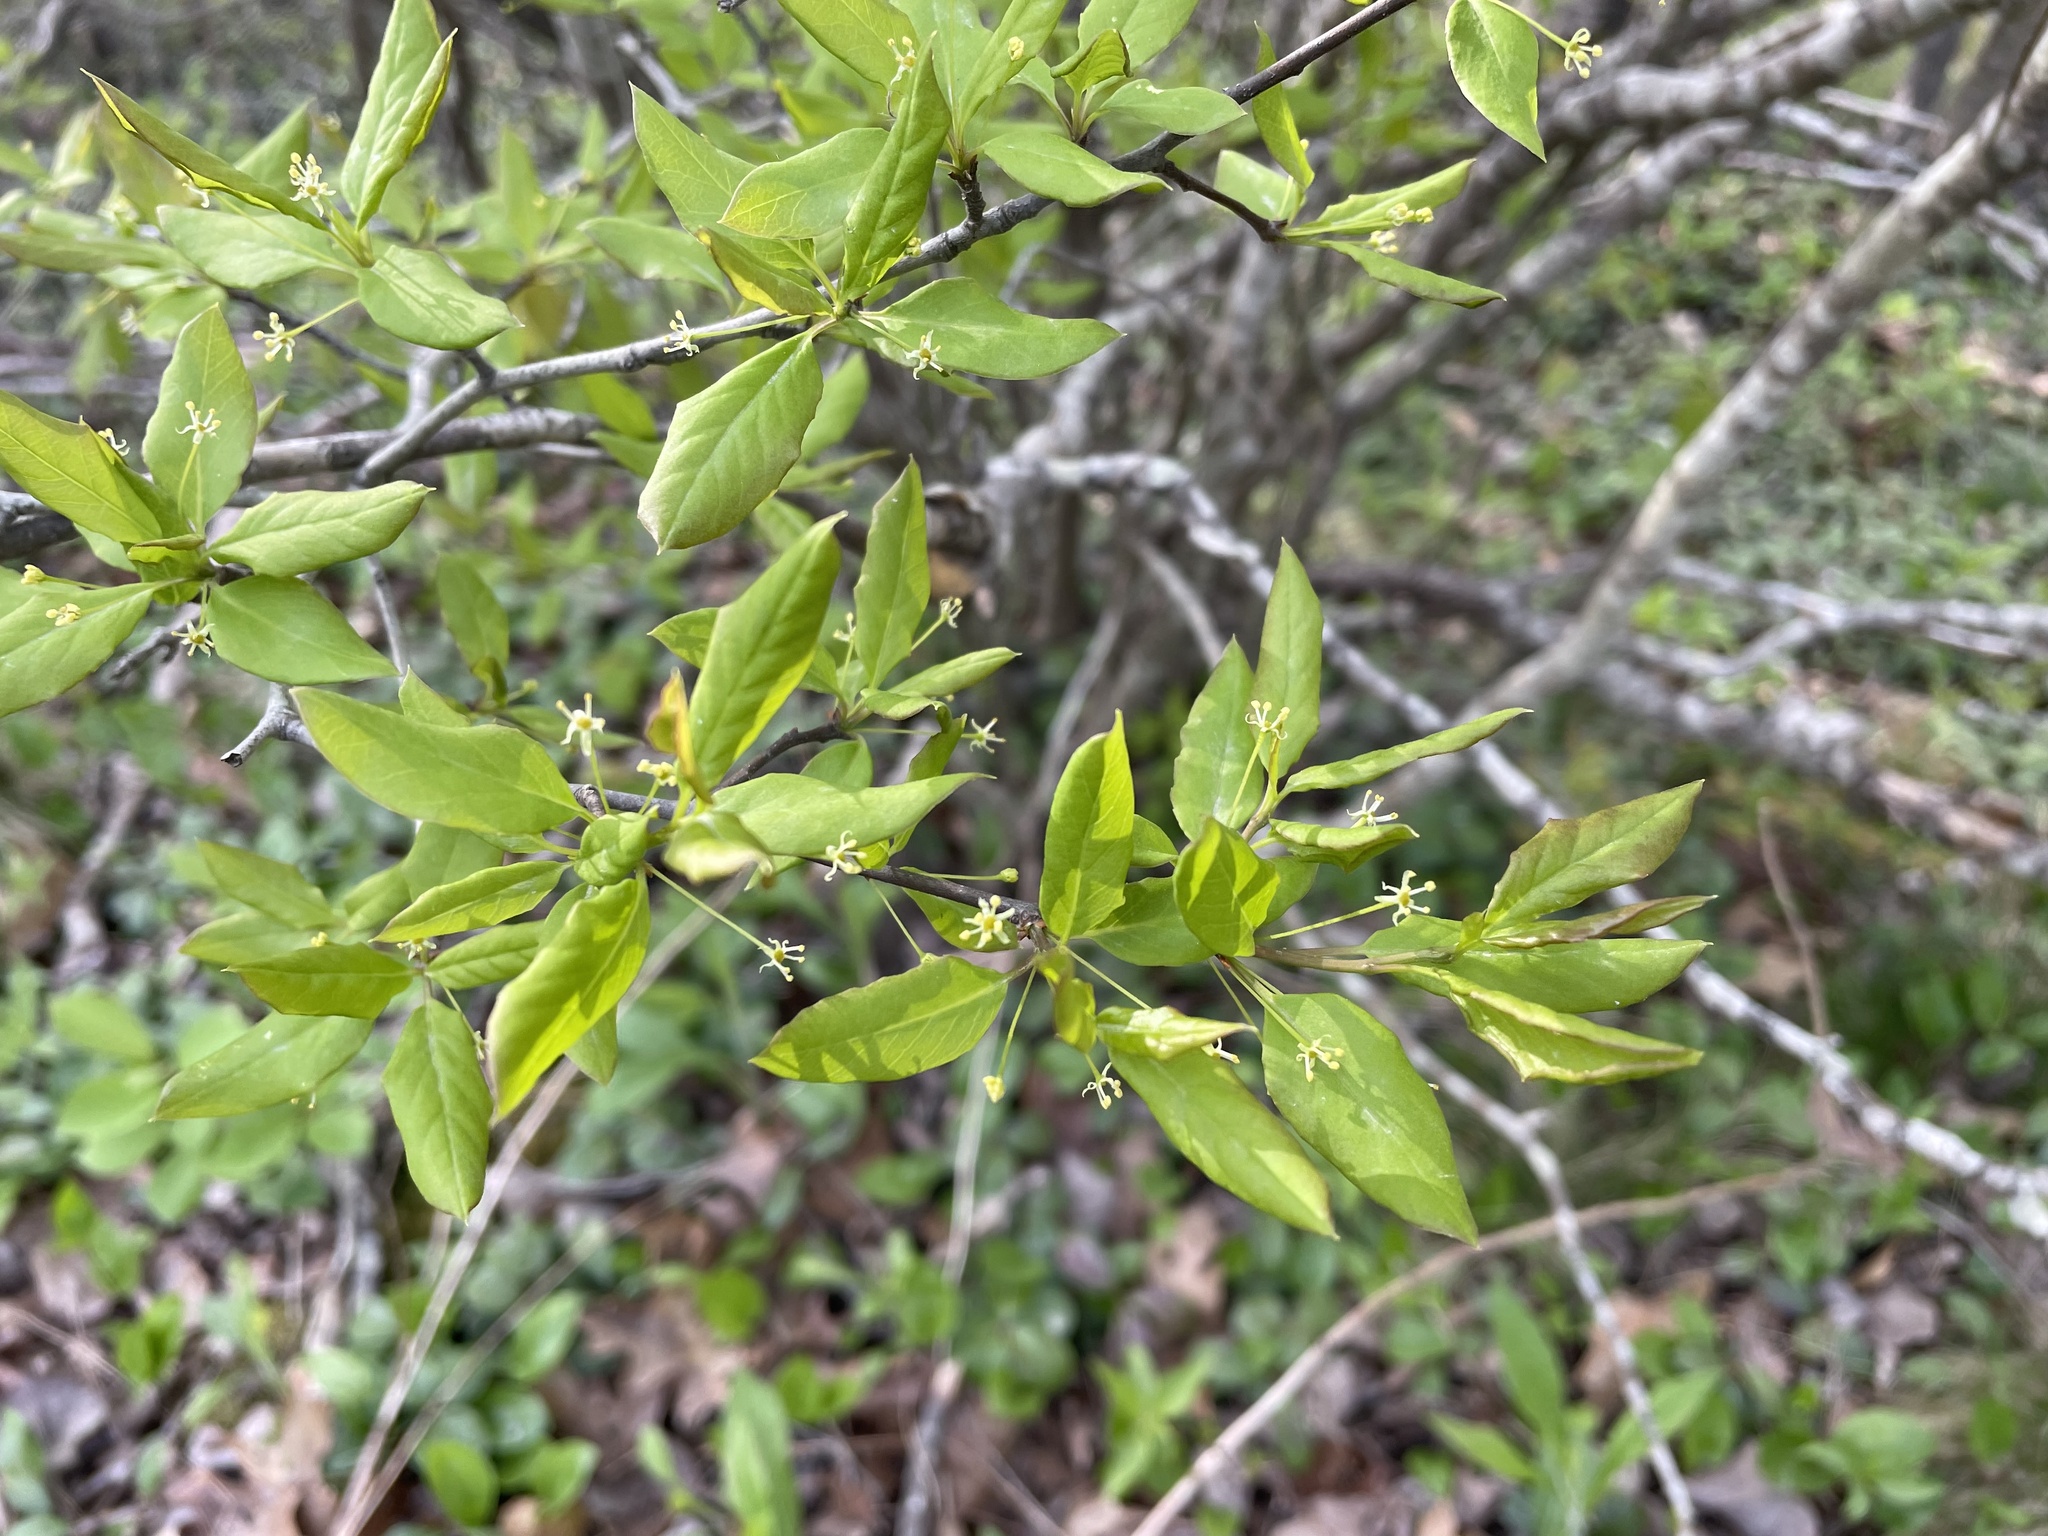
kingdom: Plantae
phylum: Tracheophyta
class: Magnoliopsida
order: Aquifoliales
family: Aquifoliaceae
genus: Ilex
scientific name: Ilex mucronata
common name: Catberry
